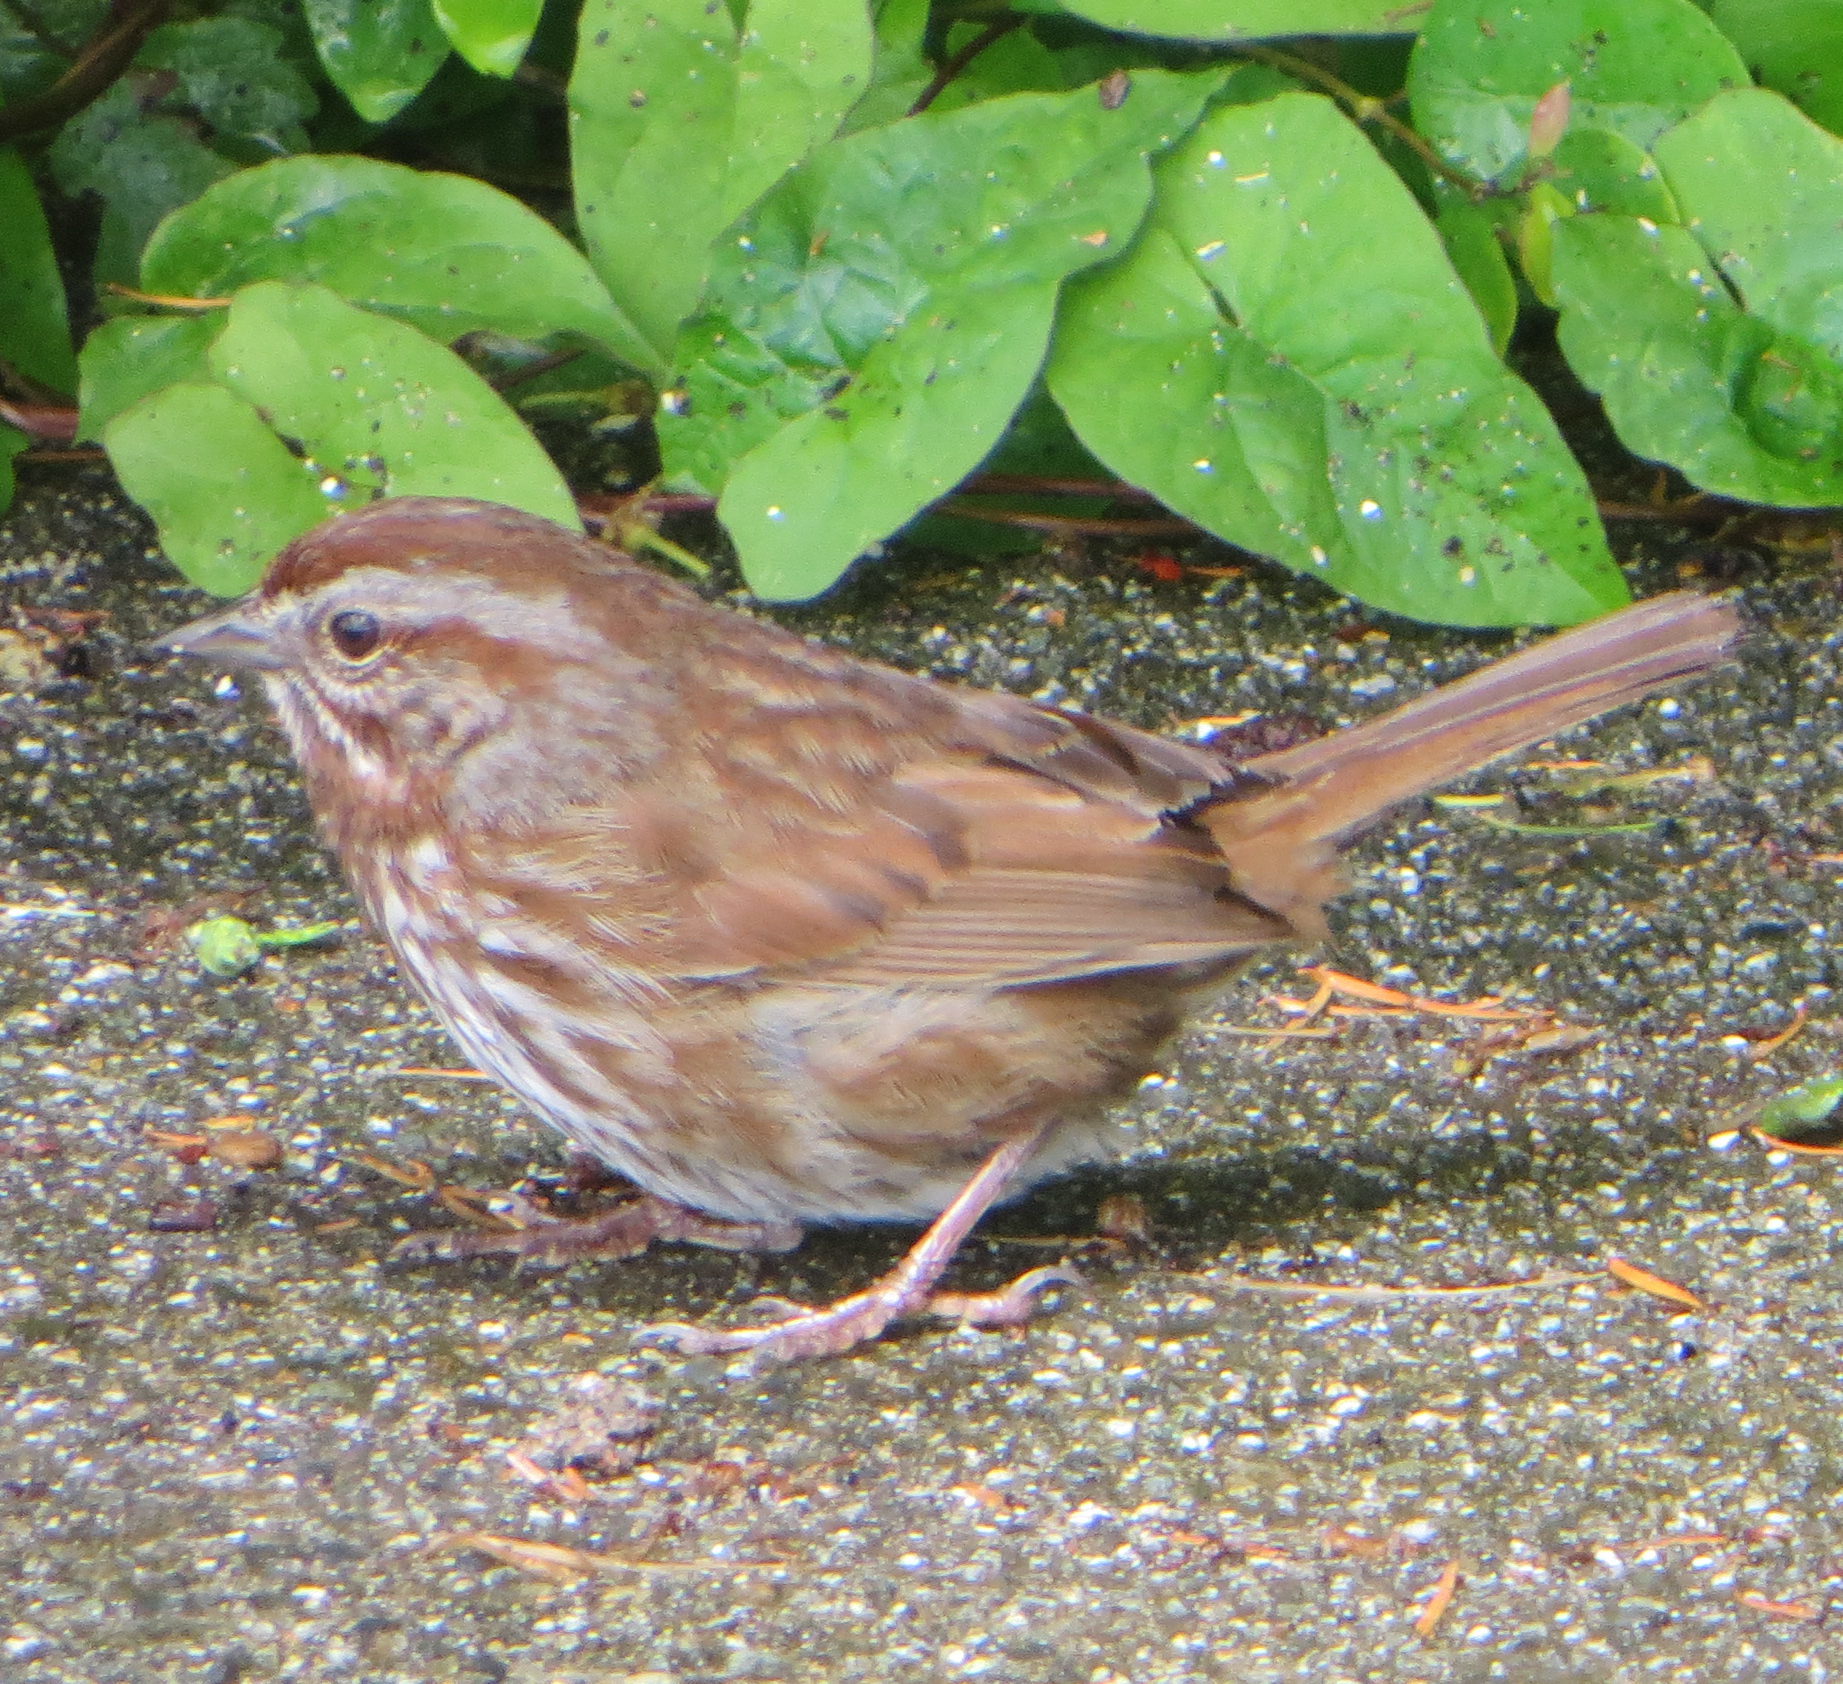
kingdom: Animalia
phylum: Chordata
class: Aves
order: Passeriformes
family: Passerellidae
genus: Melospiza
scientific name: Melospiza melodia
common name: Song sparrow
